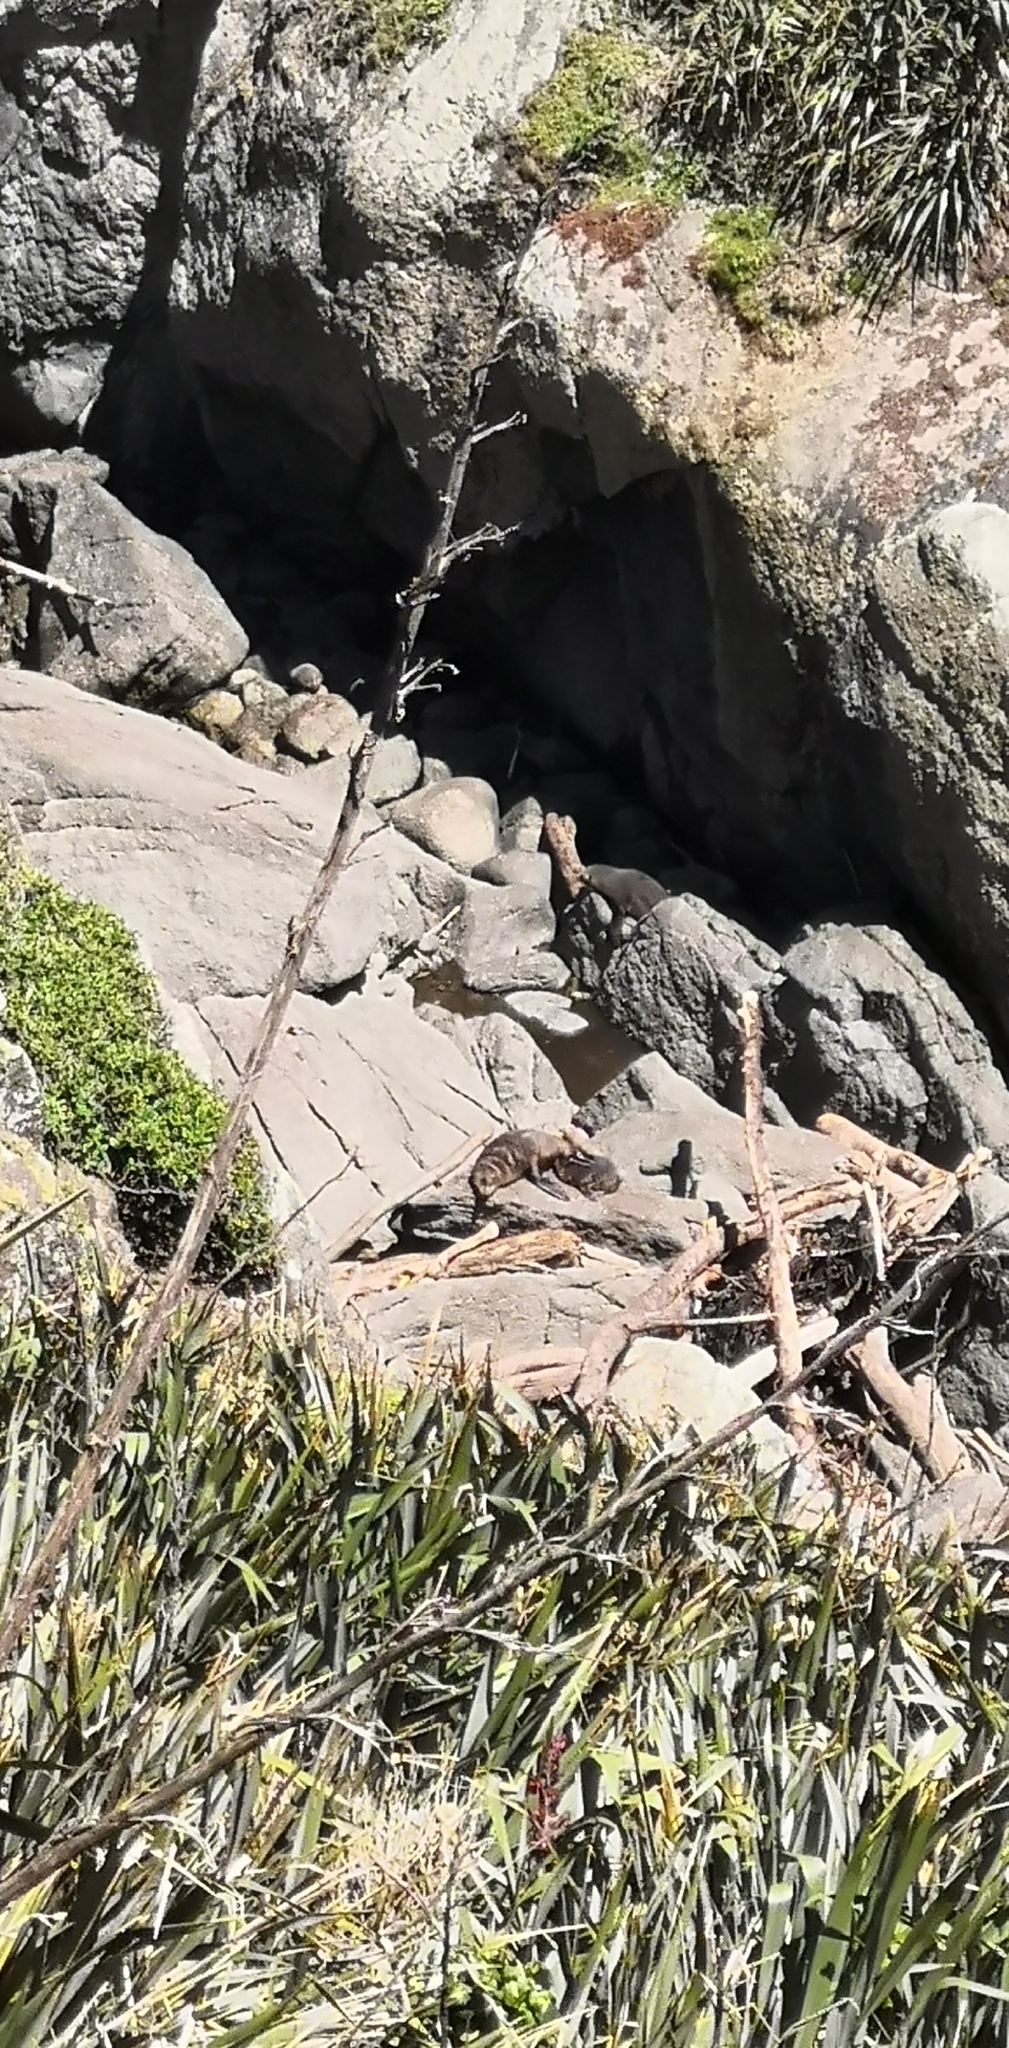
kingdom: Animalia
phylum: Chordata
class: Mammalia
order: Carnivora
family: Otariidae
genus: Arctocephalus
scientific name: Arctocephalus forsteri
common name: New zealand fur seal
